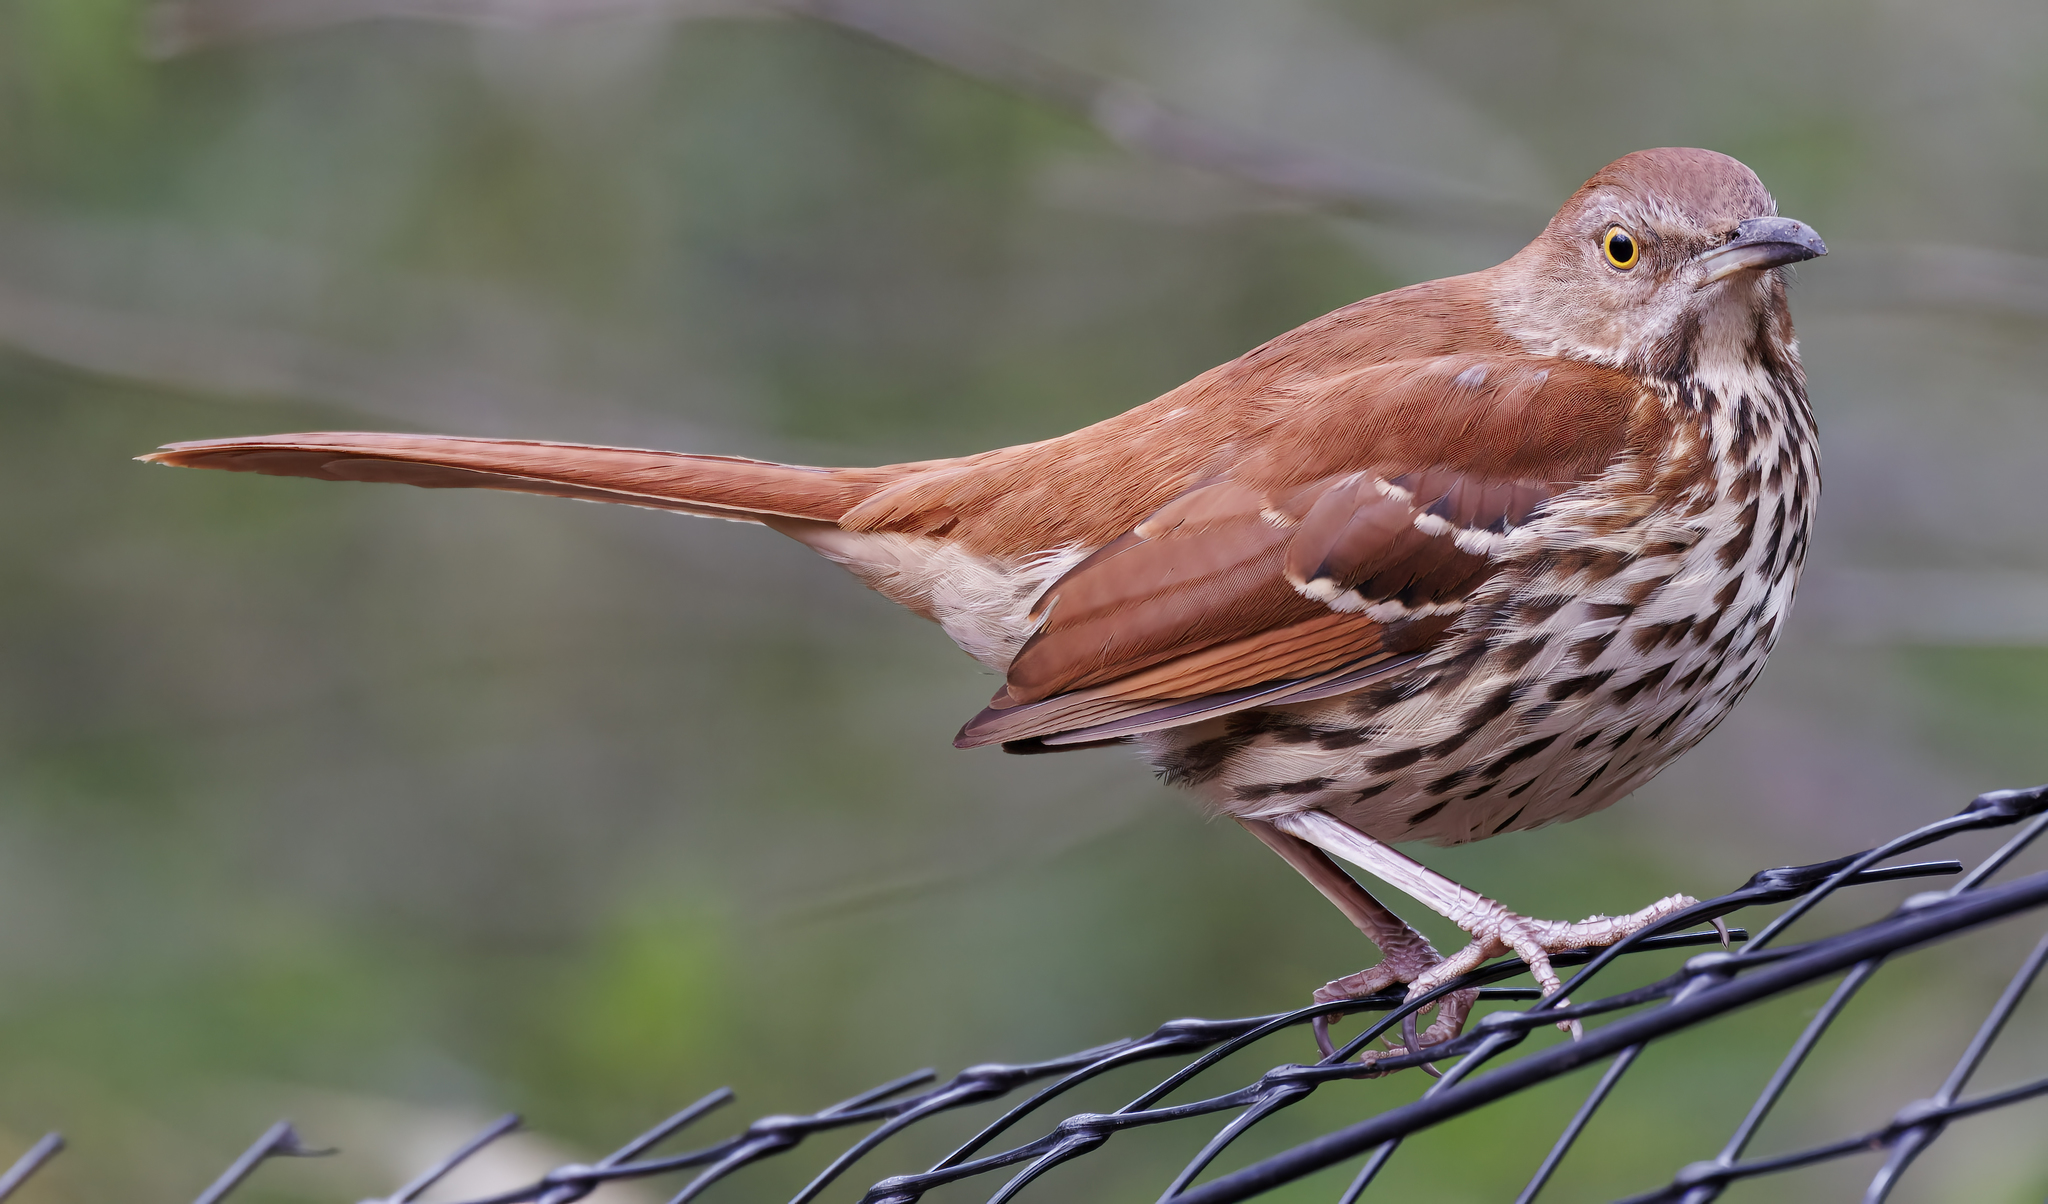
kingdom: Animalia
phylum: Chordata
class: Aves
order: Passeriformes
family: Mimidae
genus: Toxostoma
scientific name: Toxostoma rufum
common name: Brown thrasher
